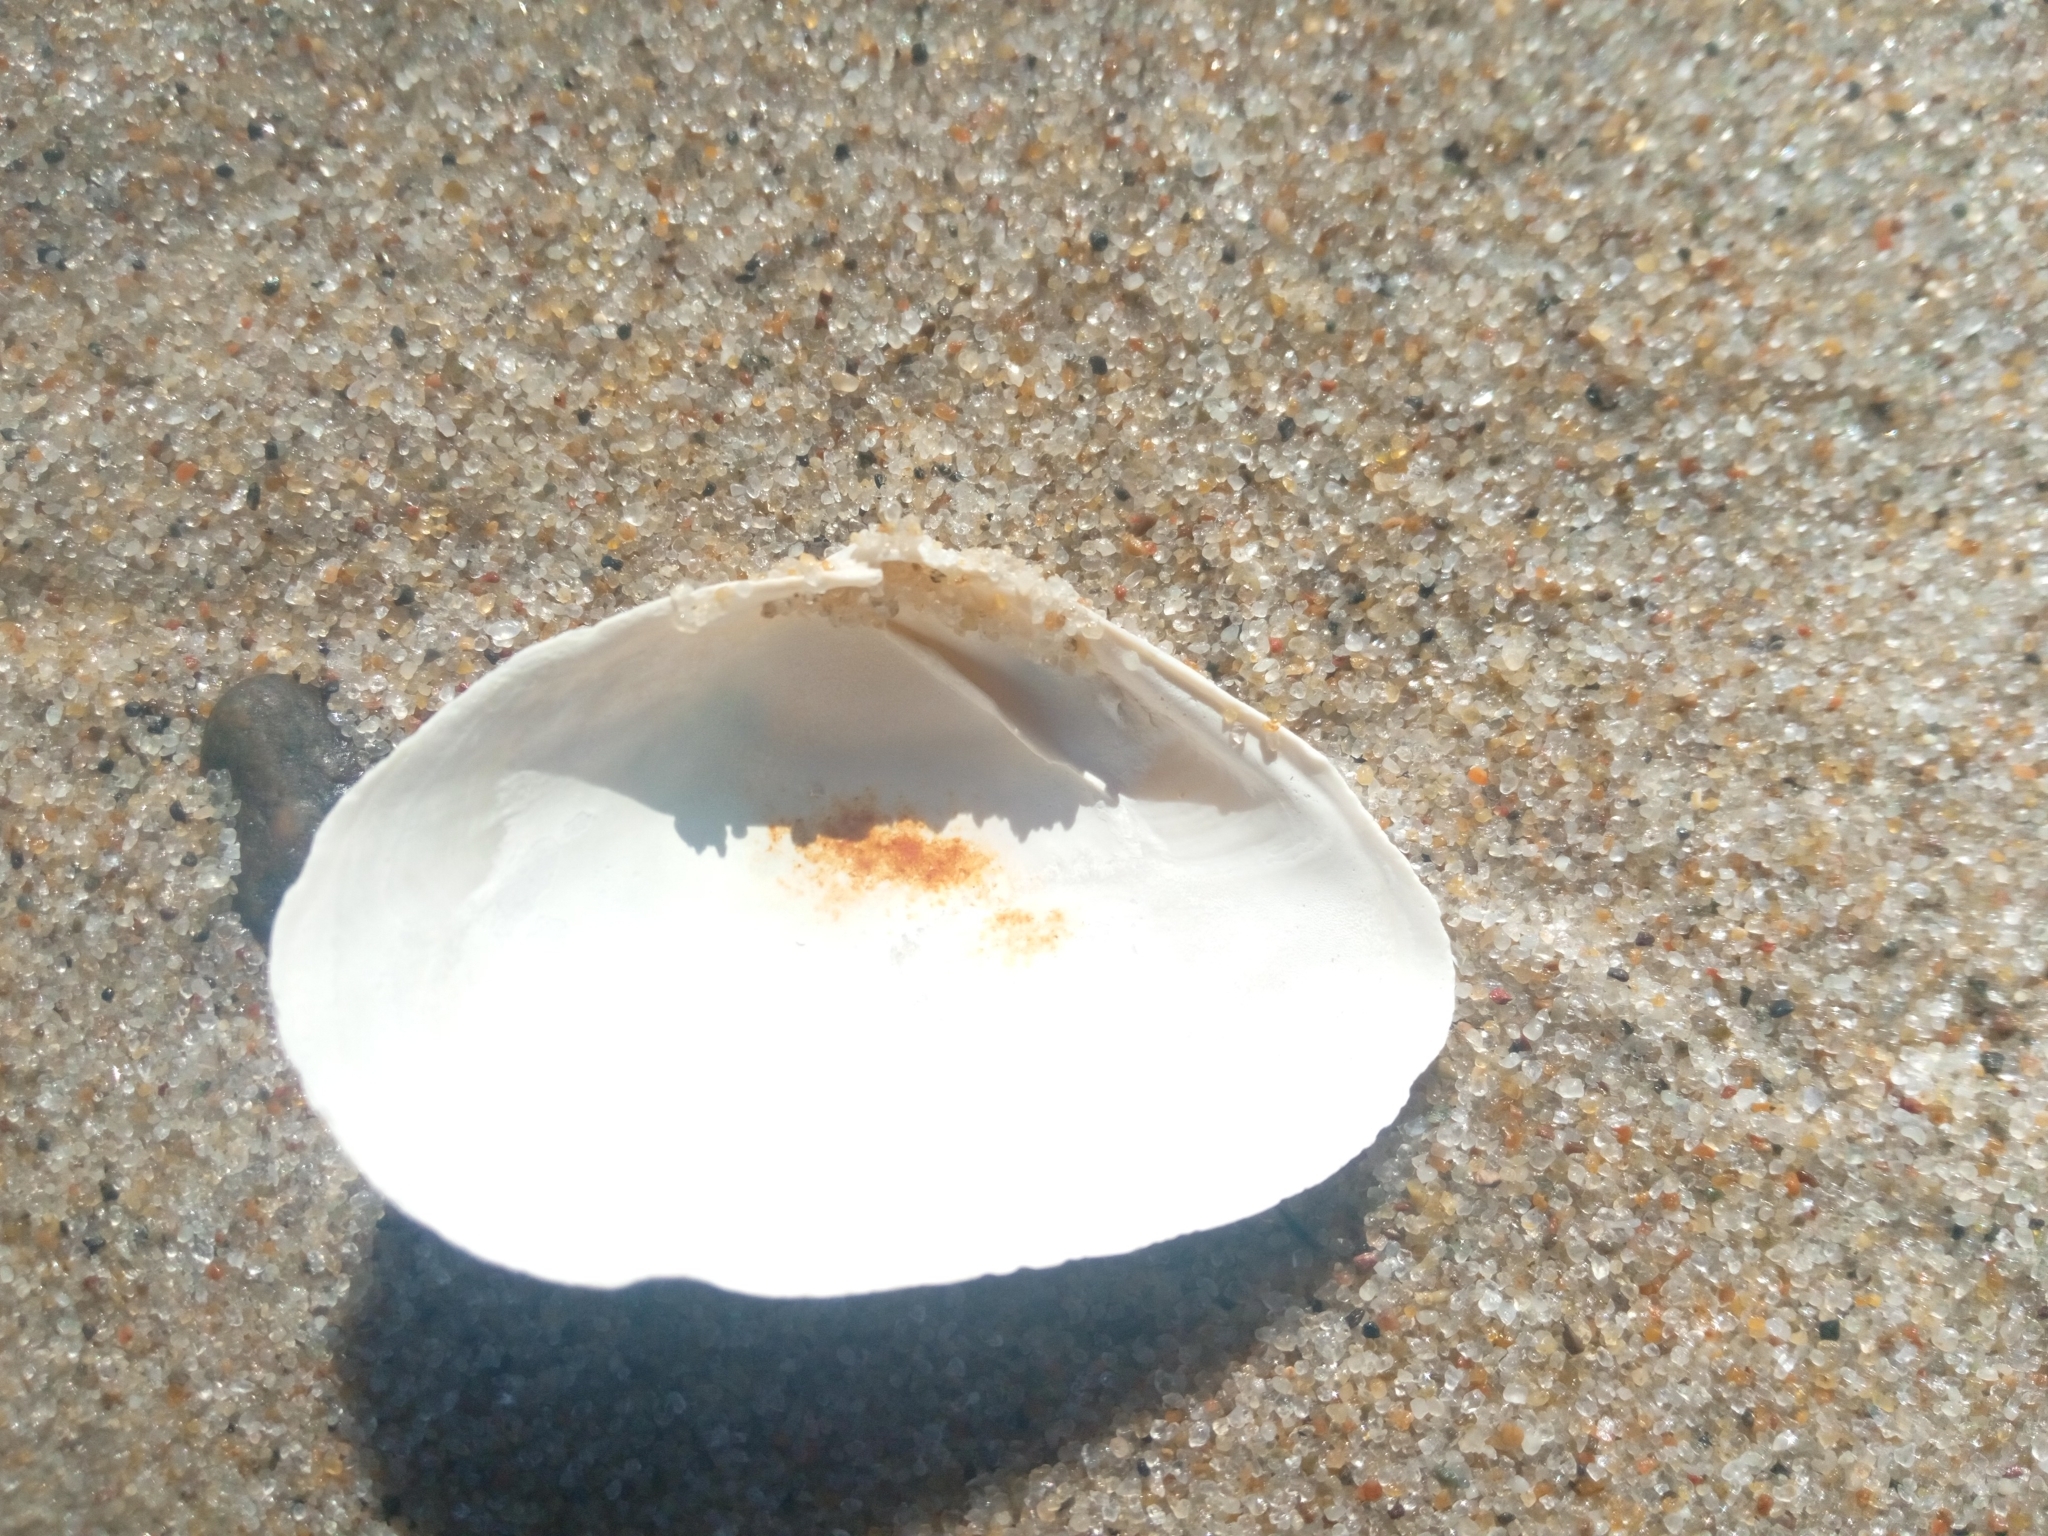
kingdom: Animalia
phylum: Mollusca
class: Bivalvia
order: Myida
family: Myidae
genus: Mya
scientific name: Mya arenaria
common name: Soft-shelled clam
